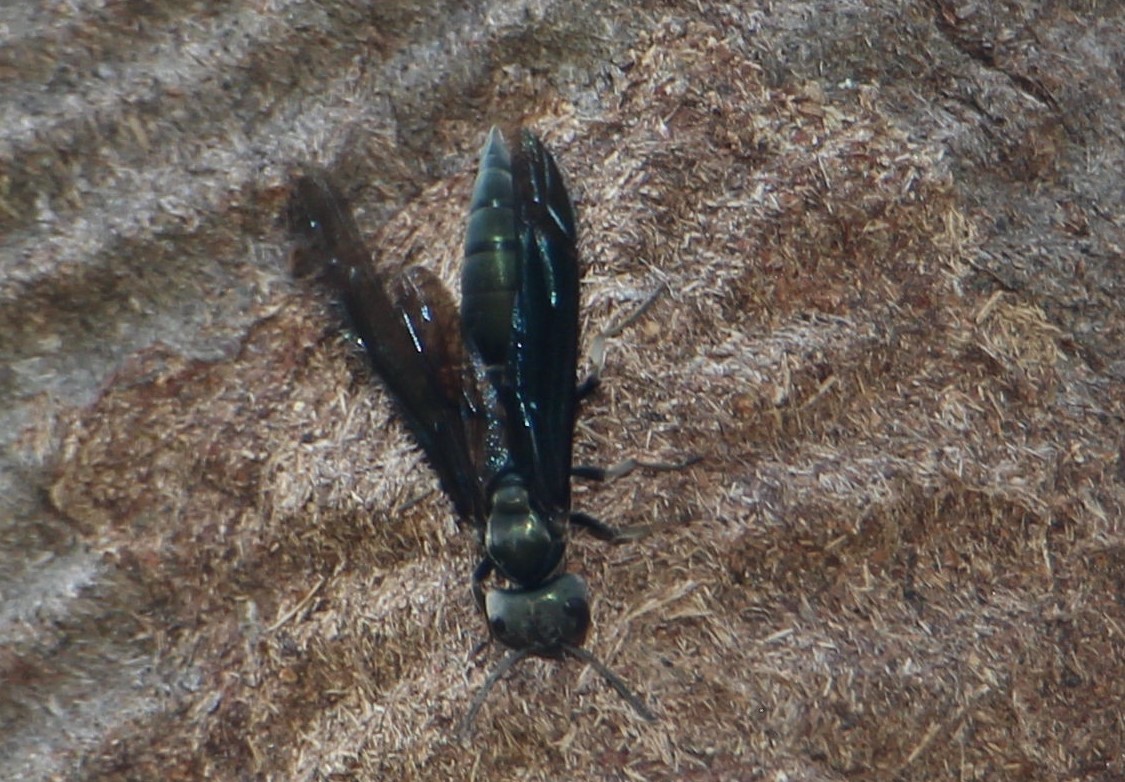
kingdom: Animalia
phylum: Arthropoda
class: Insecta
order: Hymenoptera
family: Vespidae
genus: Synoeca
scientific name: Synoeca septentrionalis
